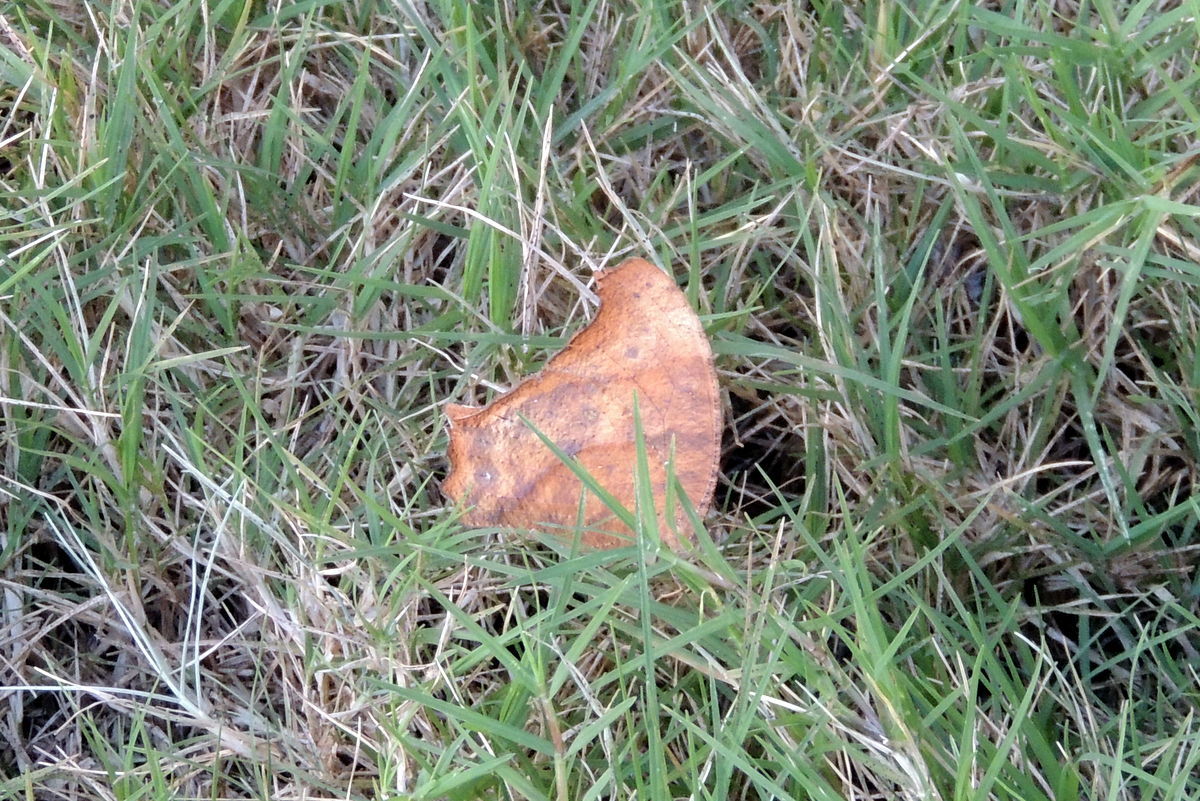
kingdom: Animalia
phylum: Arthropoda
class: Insecta
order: Lepidoptera
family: Nymphalidae
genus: Melanitis
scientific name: Melanitis leda
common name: Twilight brown
